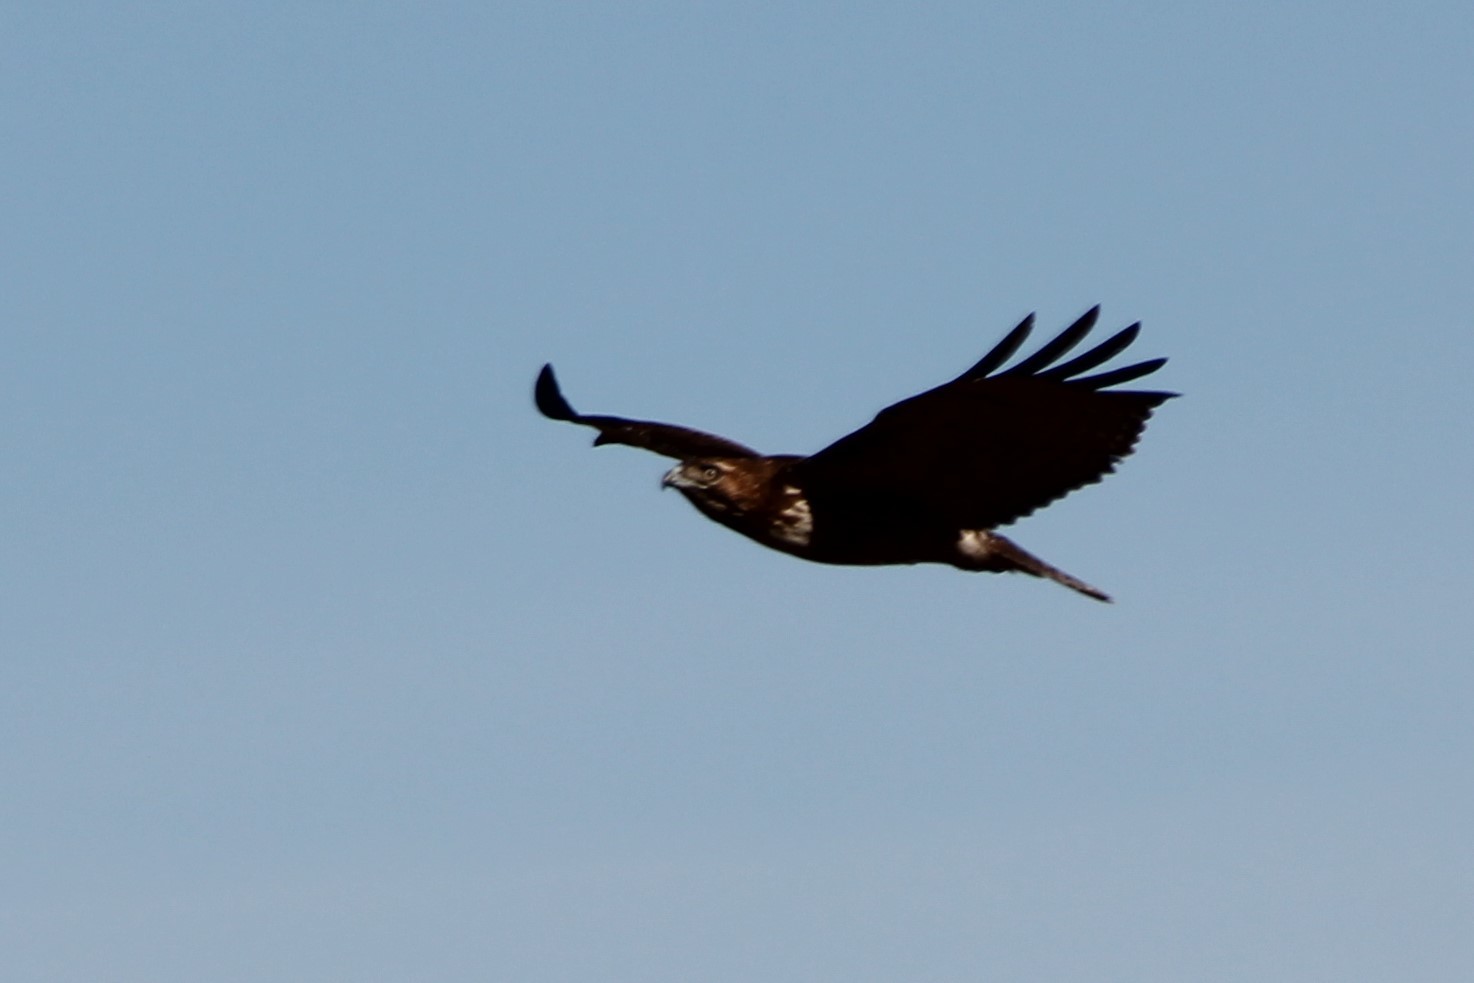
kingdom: Animalia
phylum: Chordata
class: Aves
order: Accipitriformes
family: Accipitridae
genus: Buteo
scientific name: Buteo jamaicensis
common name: Red-tailed hawk
